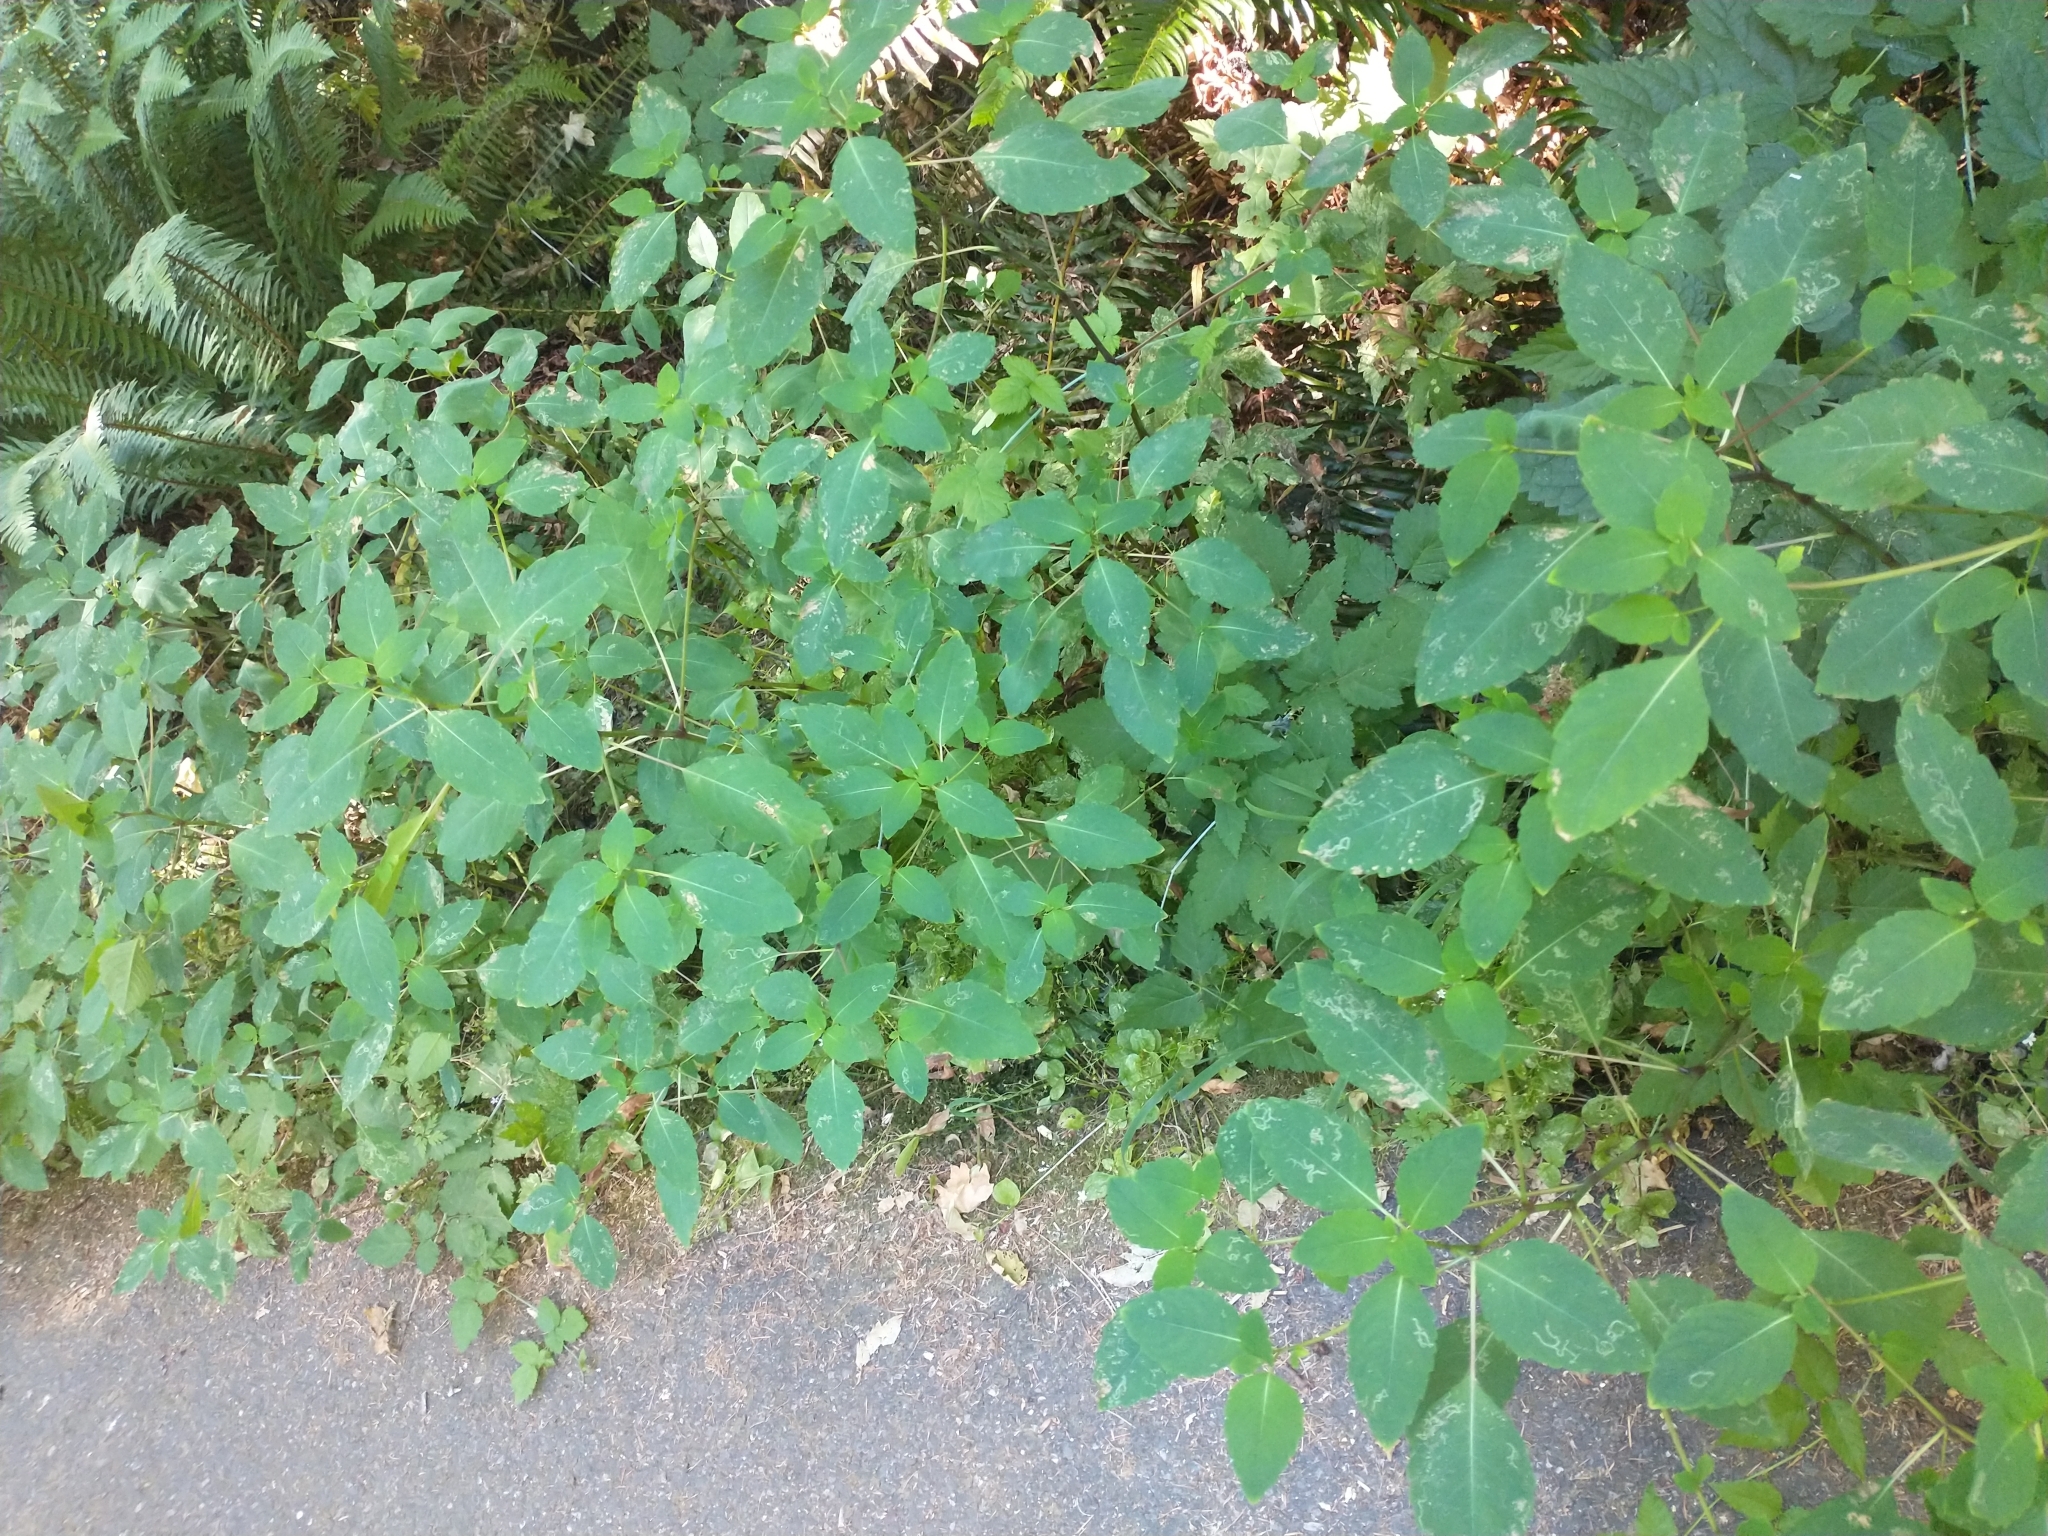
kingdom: Plantae
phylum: Tracheophyta
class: Magnoliopsida
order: Ericales
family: Balsaminaceae
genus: Impatiens
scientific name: Impatiens capensis
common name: Orange balsam
